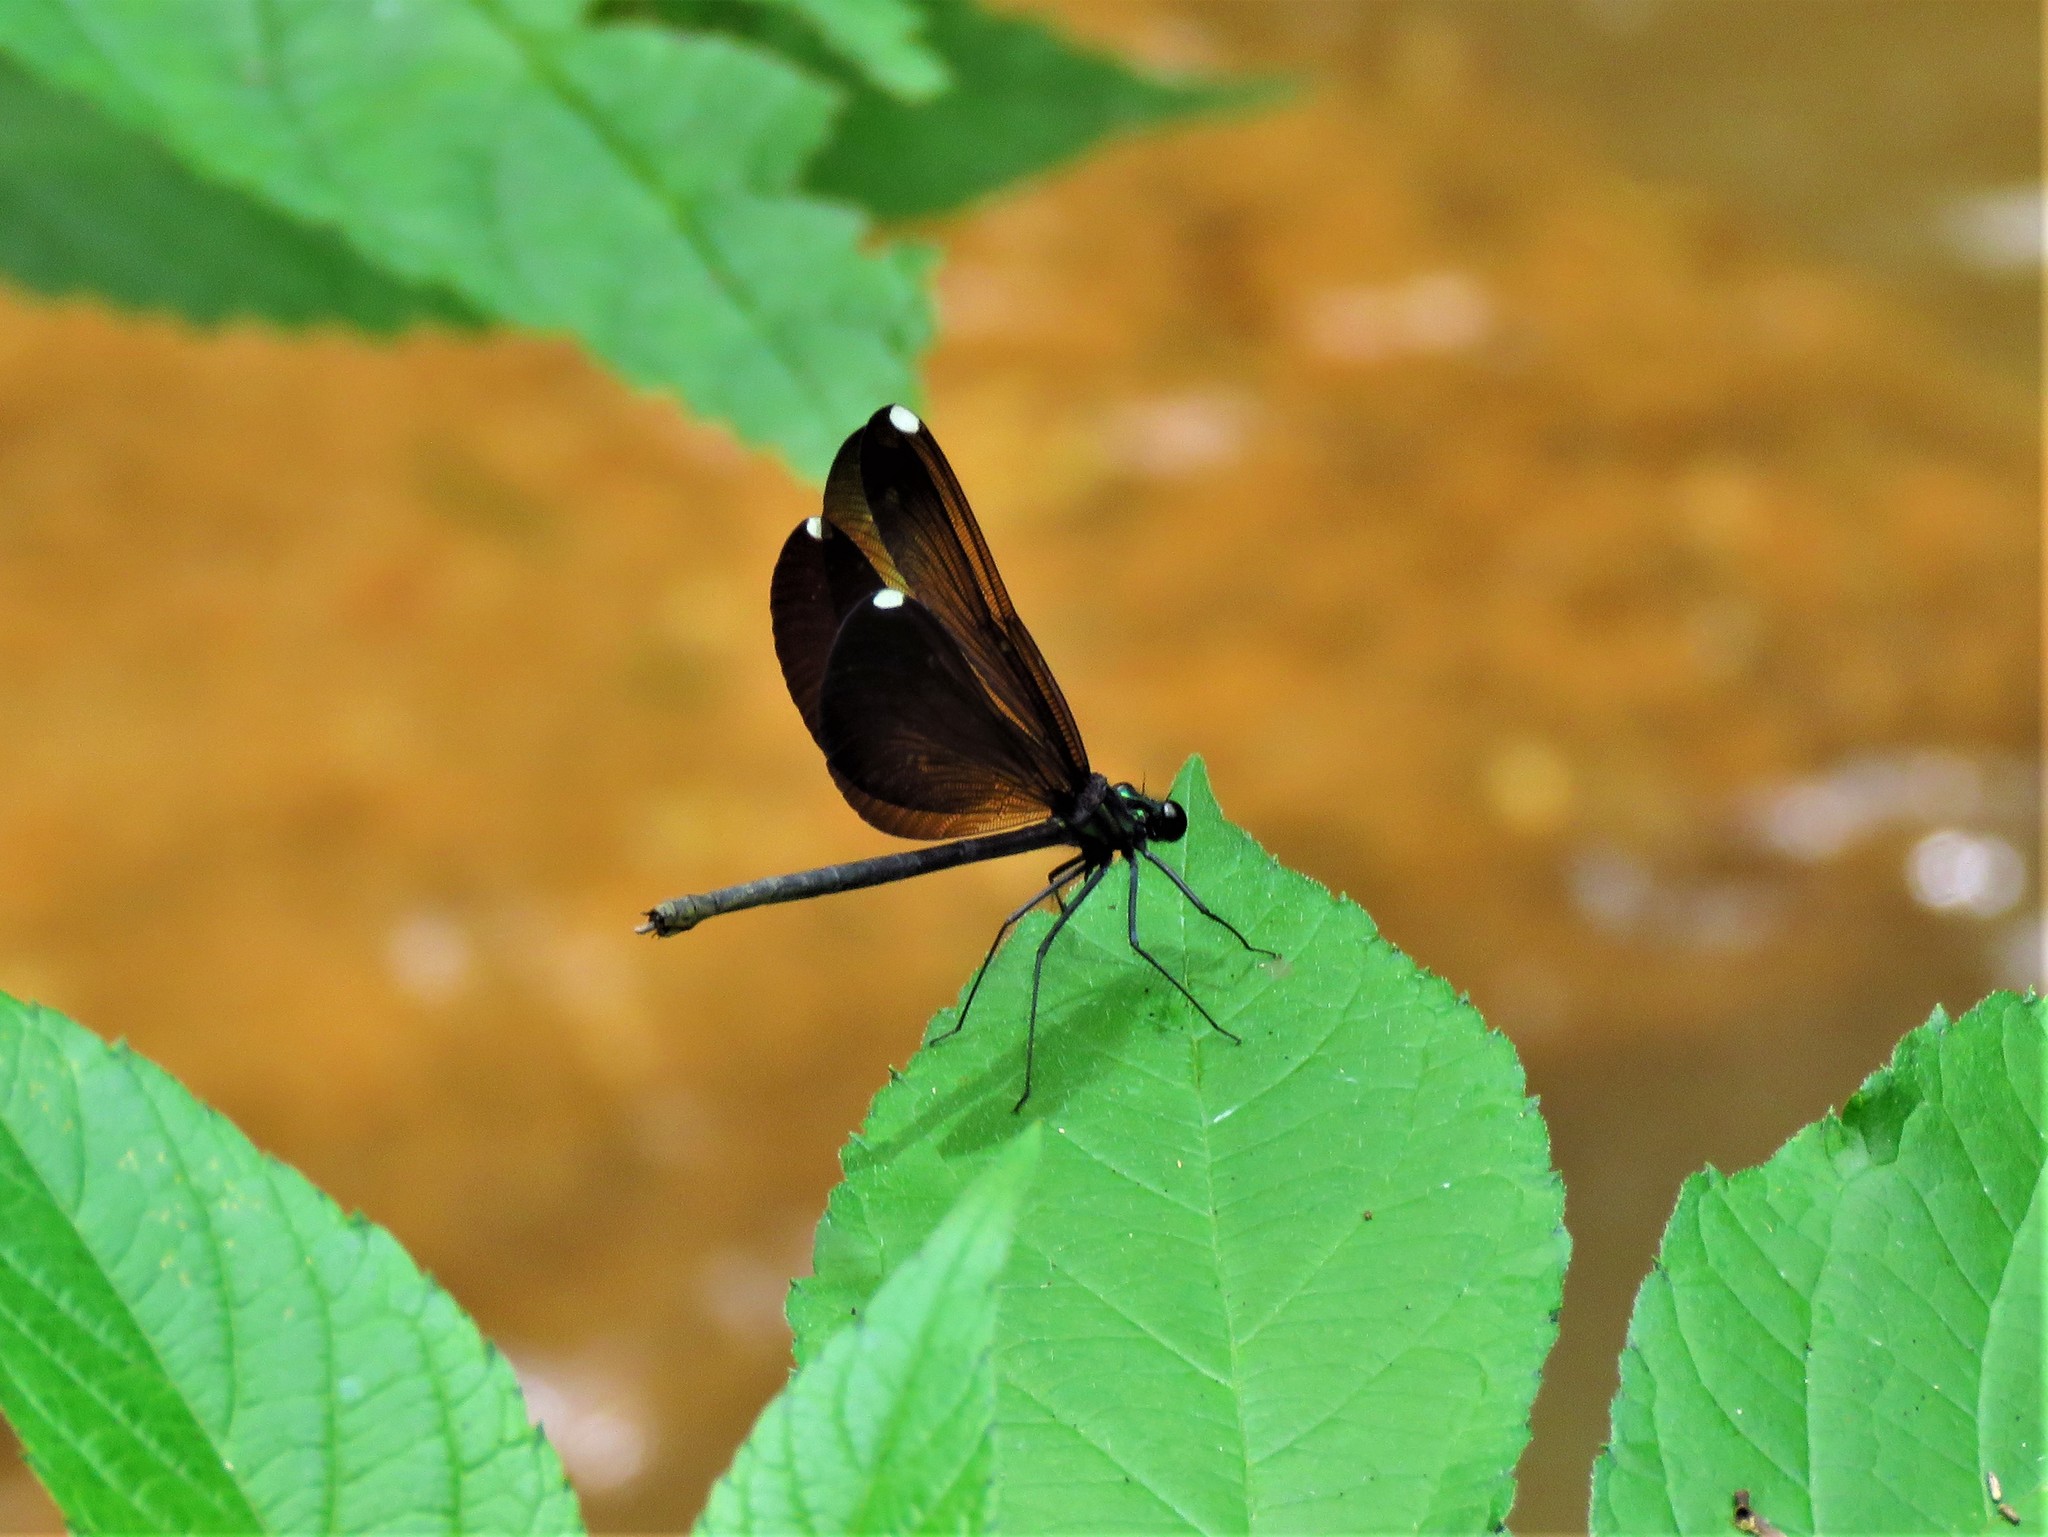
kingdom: Animalia
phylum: Arthropoda
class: Insecta
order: Odonata
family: Calopterygidae
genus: Calopteryx
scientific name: Calopteryx maculata
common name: Ebony jewelwing
